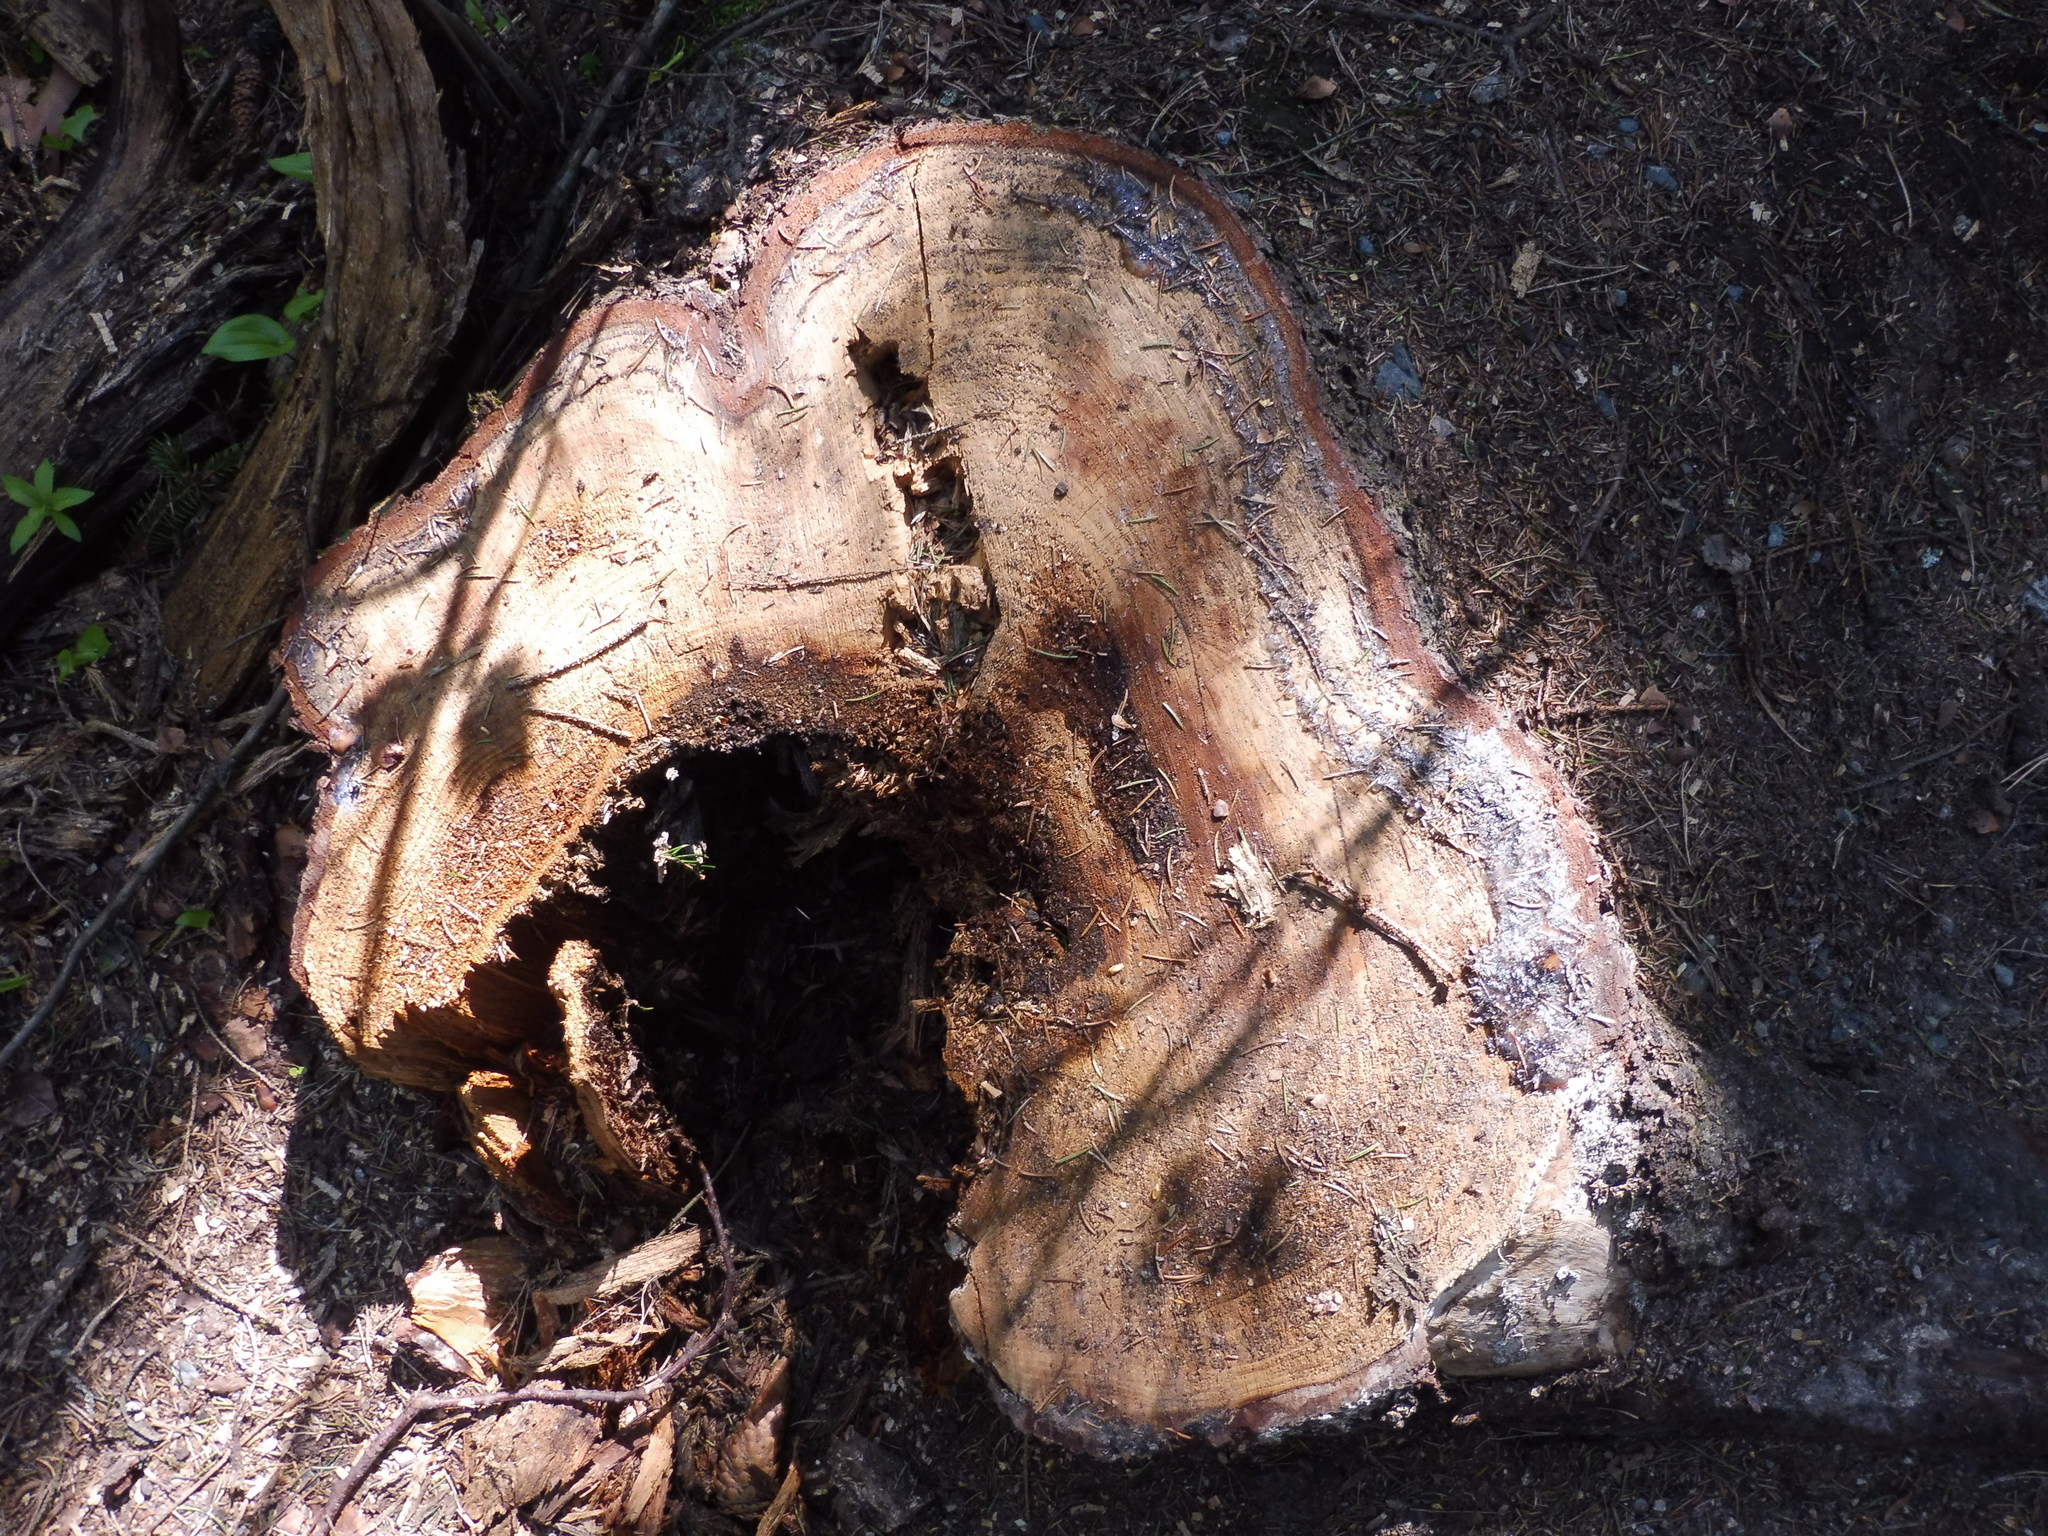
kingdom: Plantae
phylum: Tracheophyta
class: Pinopsida
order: Pinales
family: Pinaceae
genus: Picea
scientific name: Picea abies
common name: Norway spruce
